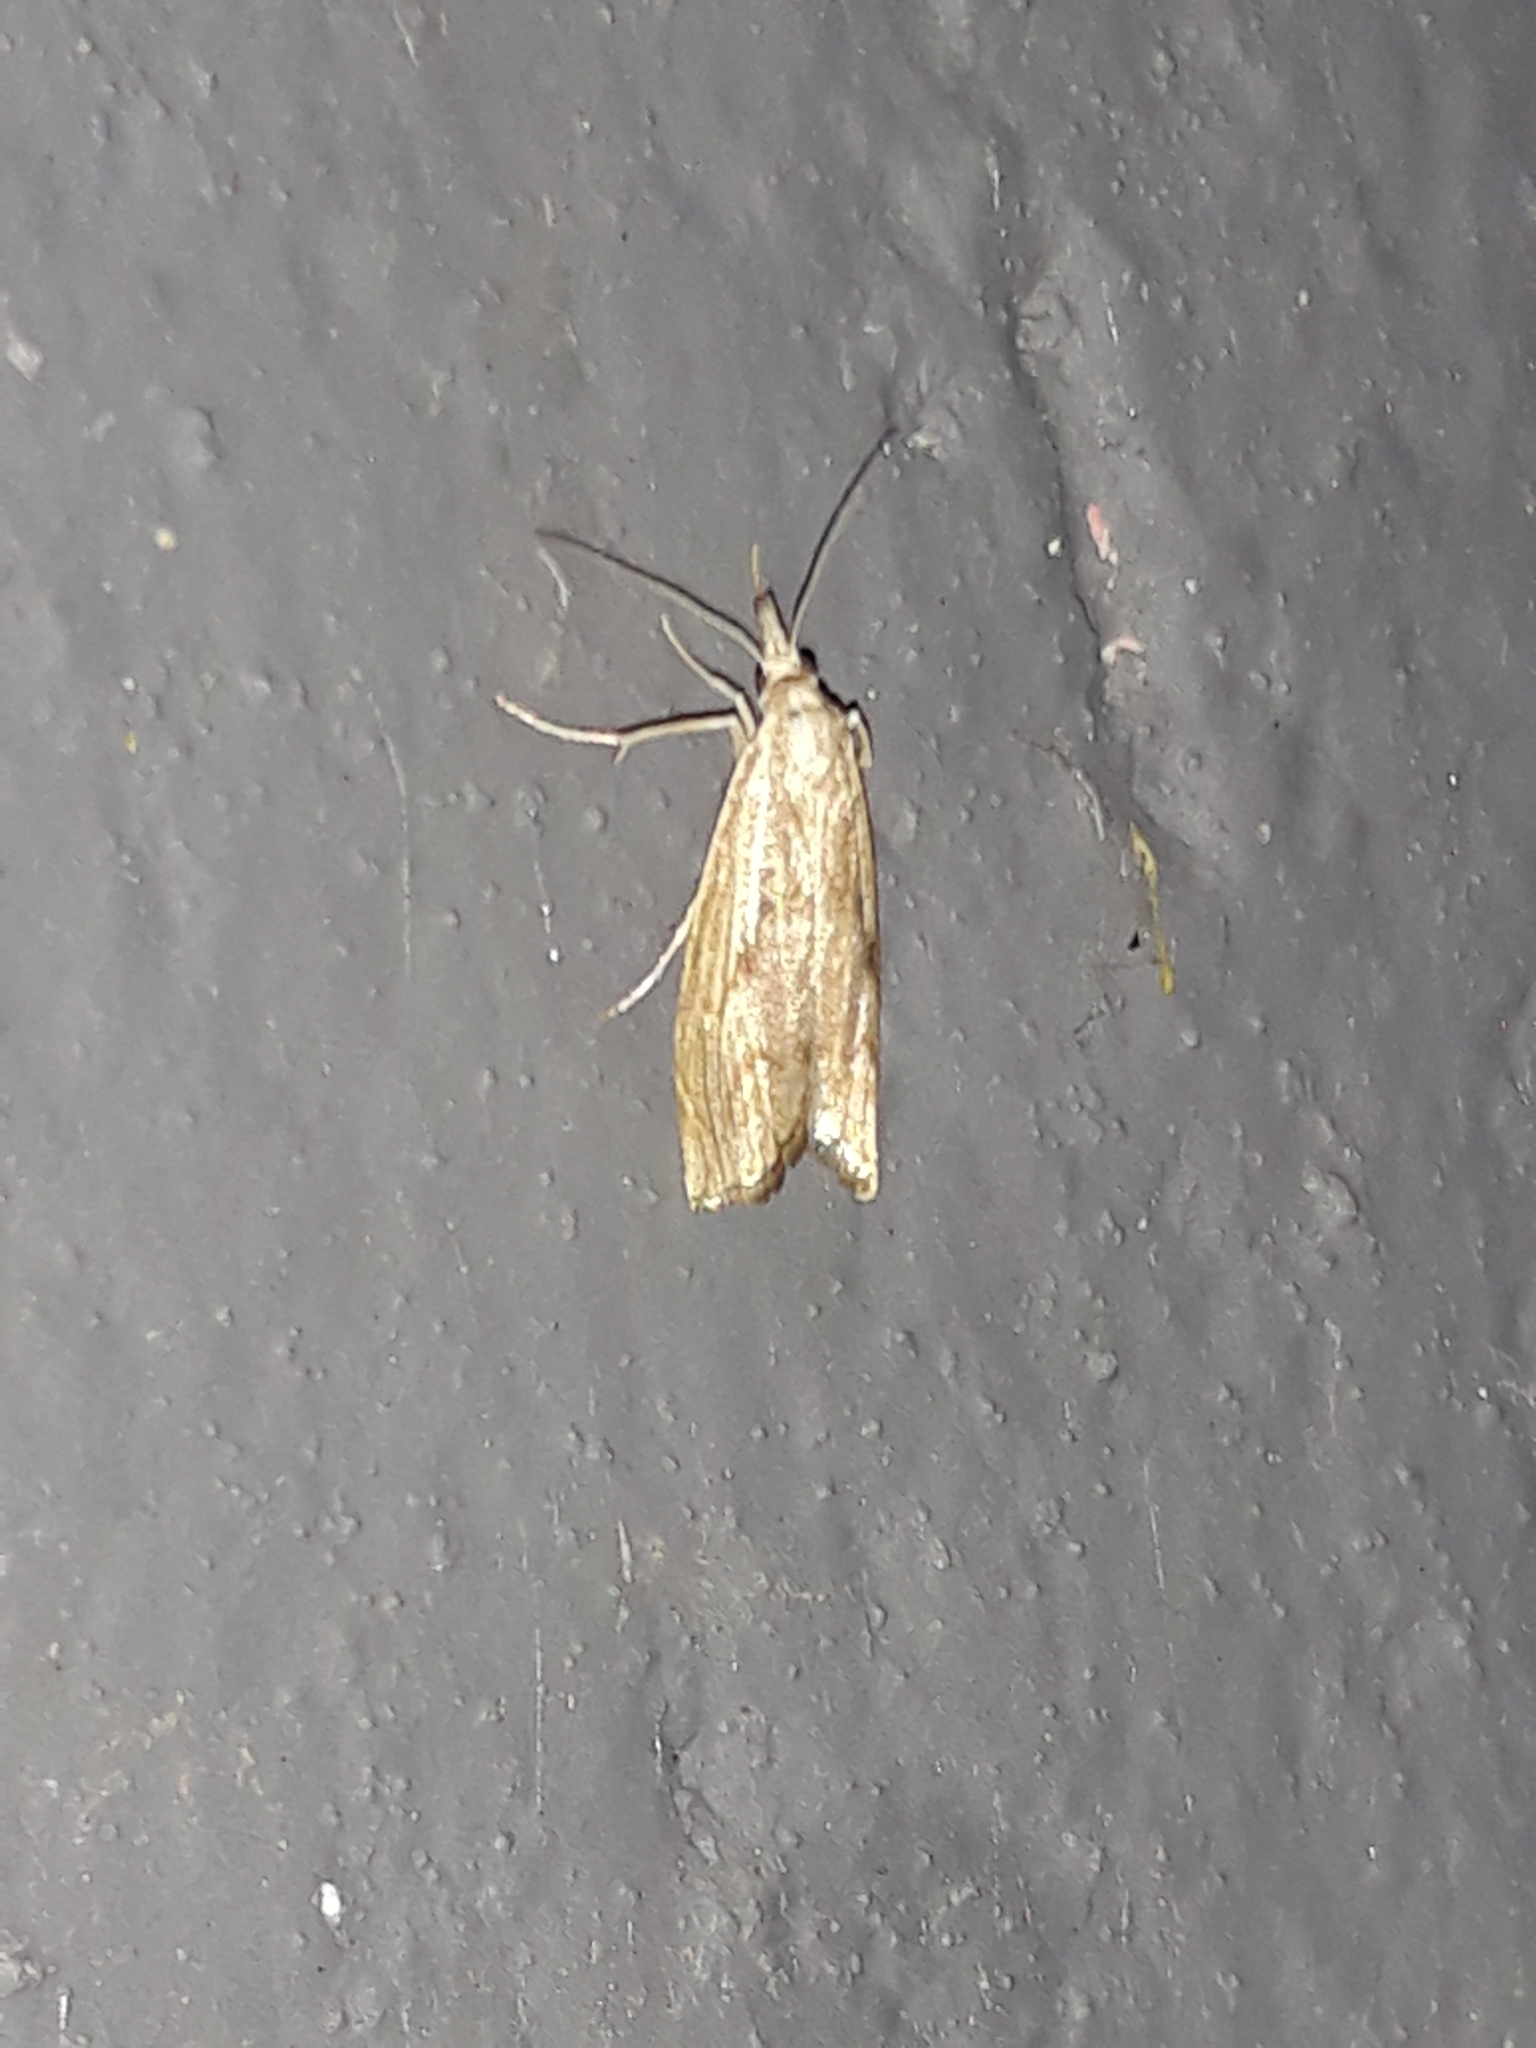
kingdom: Animalia
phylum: Arthropoda
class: Insecta
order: Lepidoptera
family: Crambidae
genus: Agriphila
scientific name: Agriphila geniculea
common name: Elbow-stripe grass-veneer
